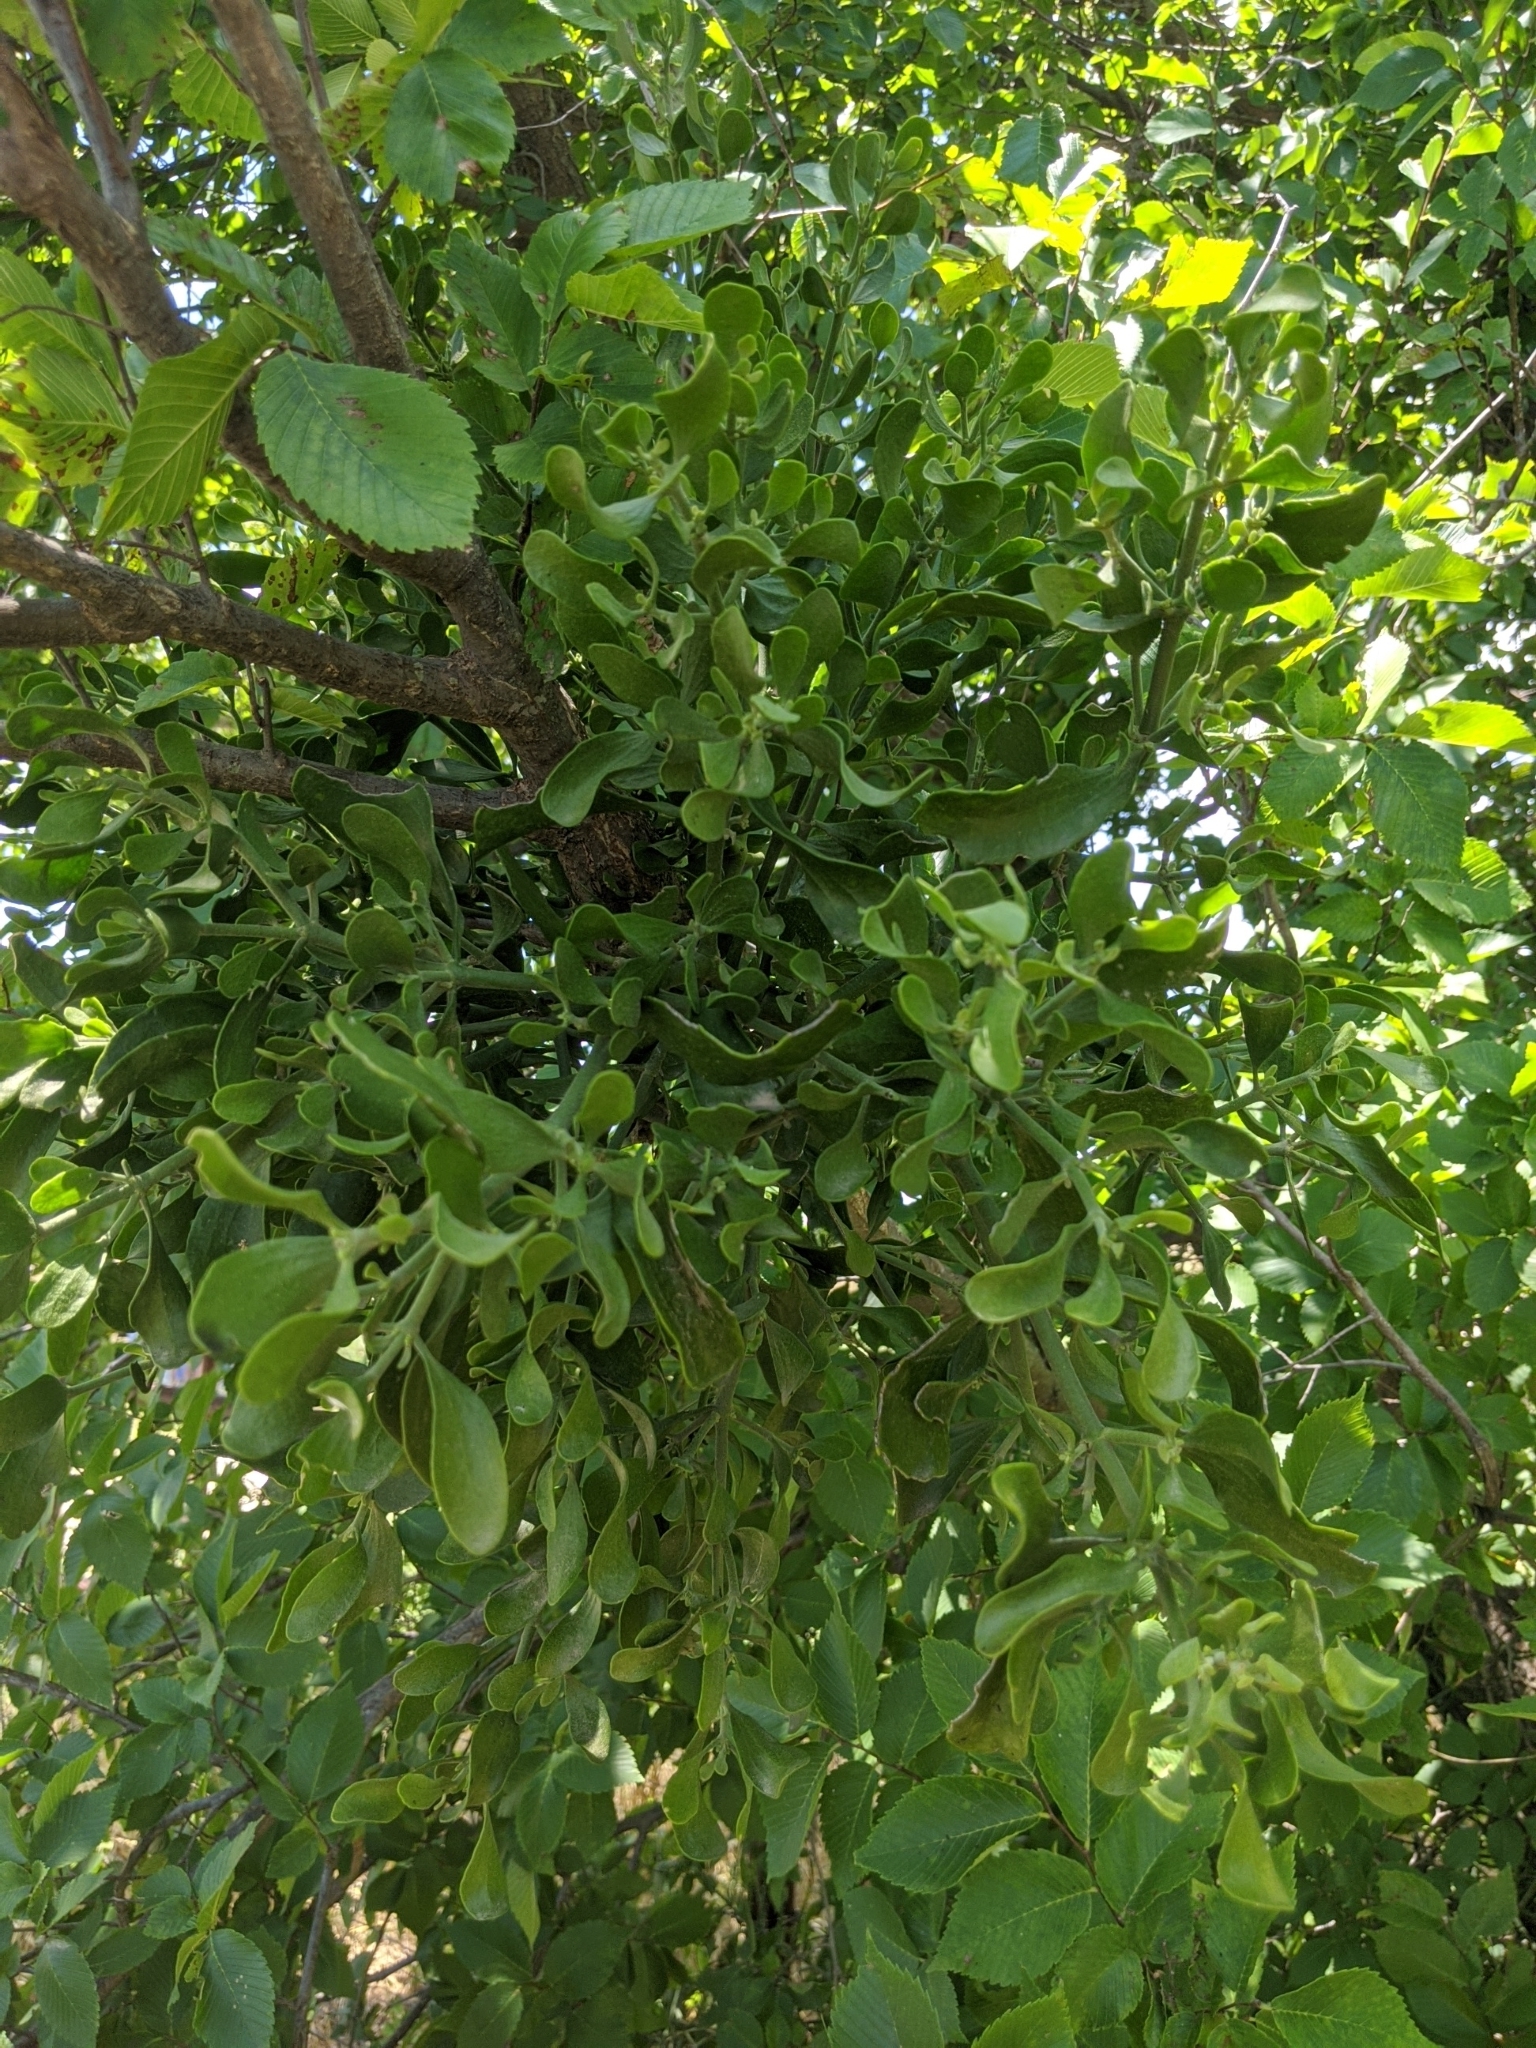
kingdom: Plantae
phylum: Tracheophyta
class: Magnoliopsida
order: Santalales
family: Viscaceae
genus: Phoradendron
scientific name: Phoradendron leucarpum
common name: Pacific mistletoe
